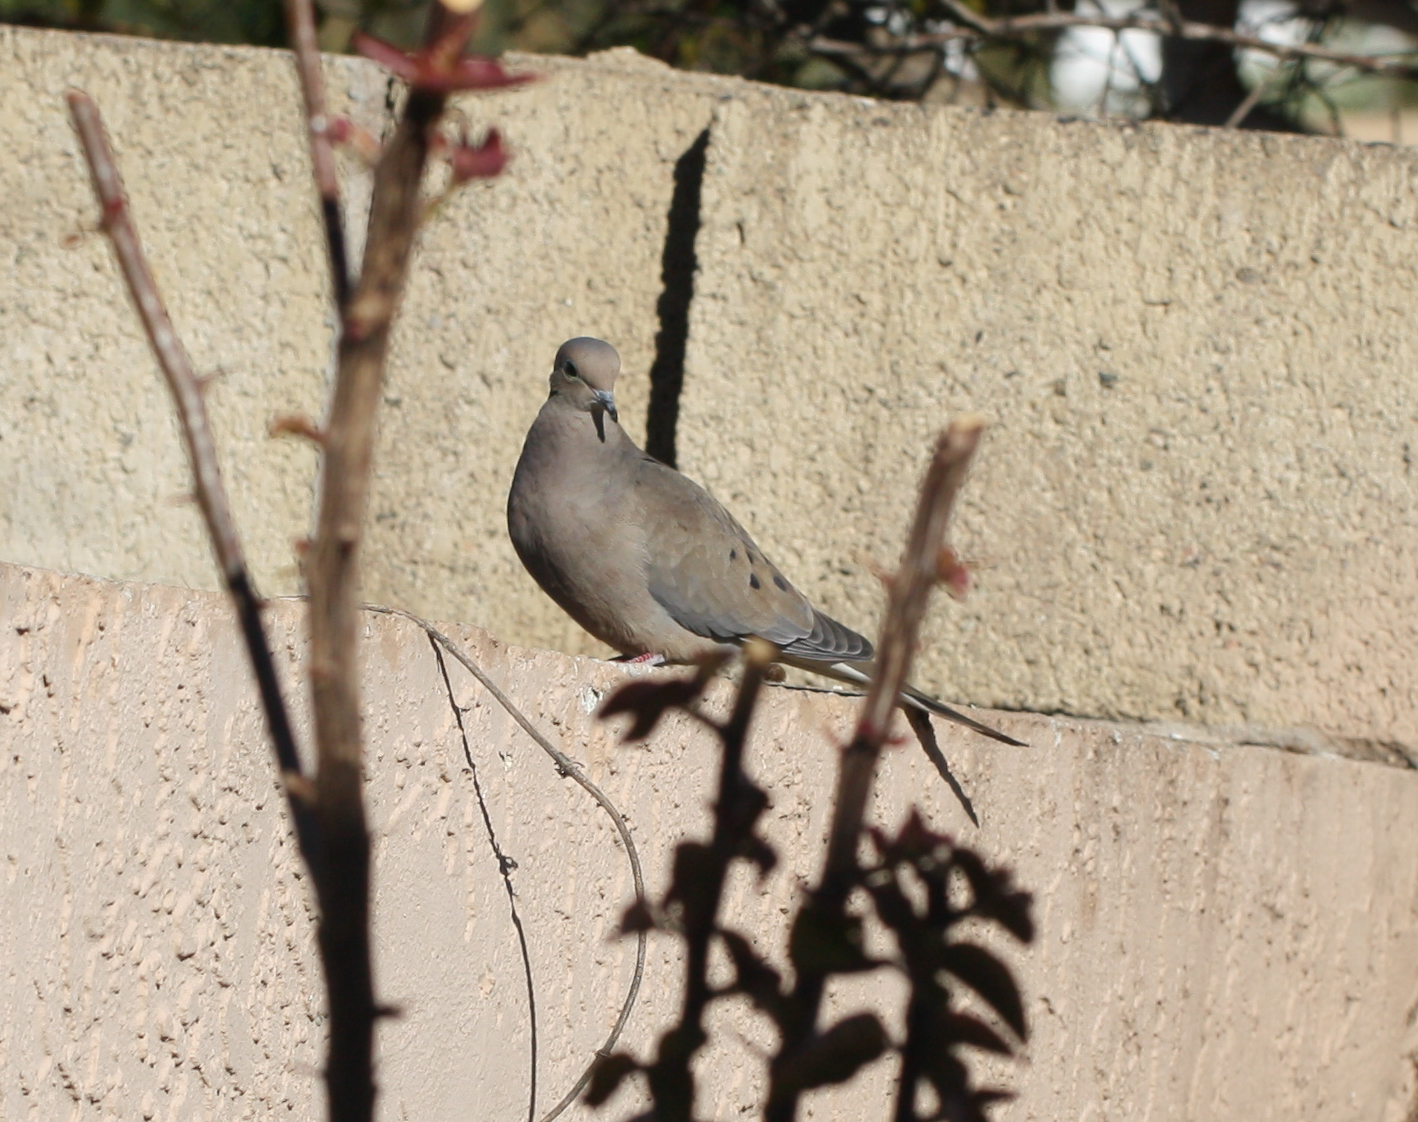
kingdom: Animalia
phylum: Chordata
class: Aves
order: Columbiformes
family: Columbidae
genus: Zenaida
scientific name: Zenaida macroura
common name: Mourning dove
